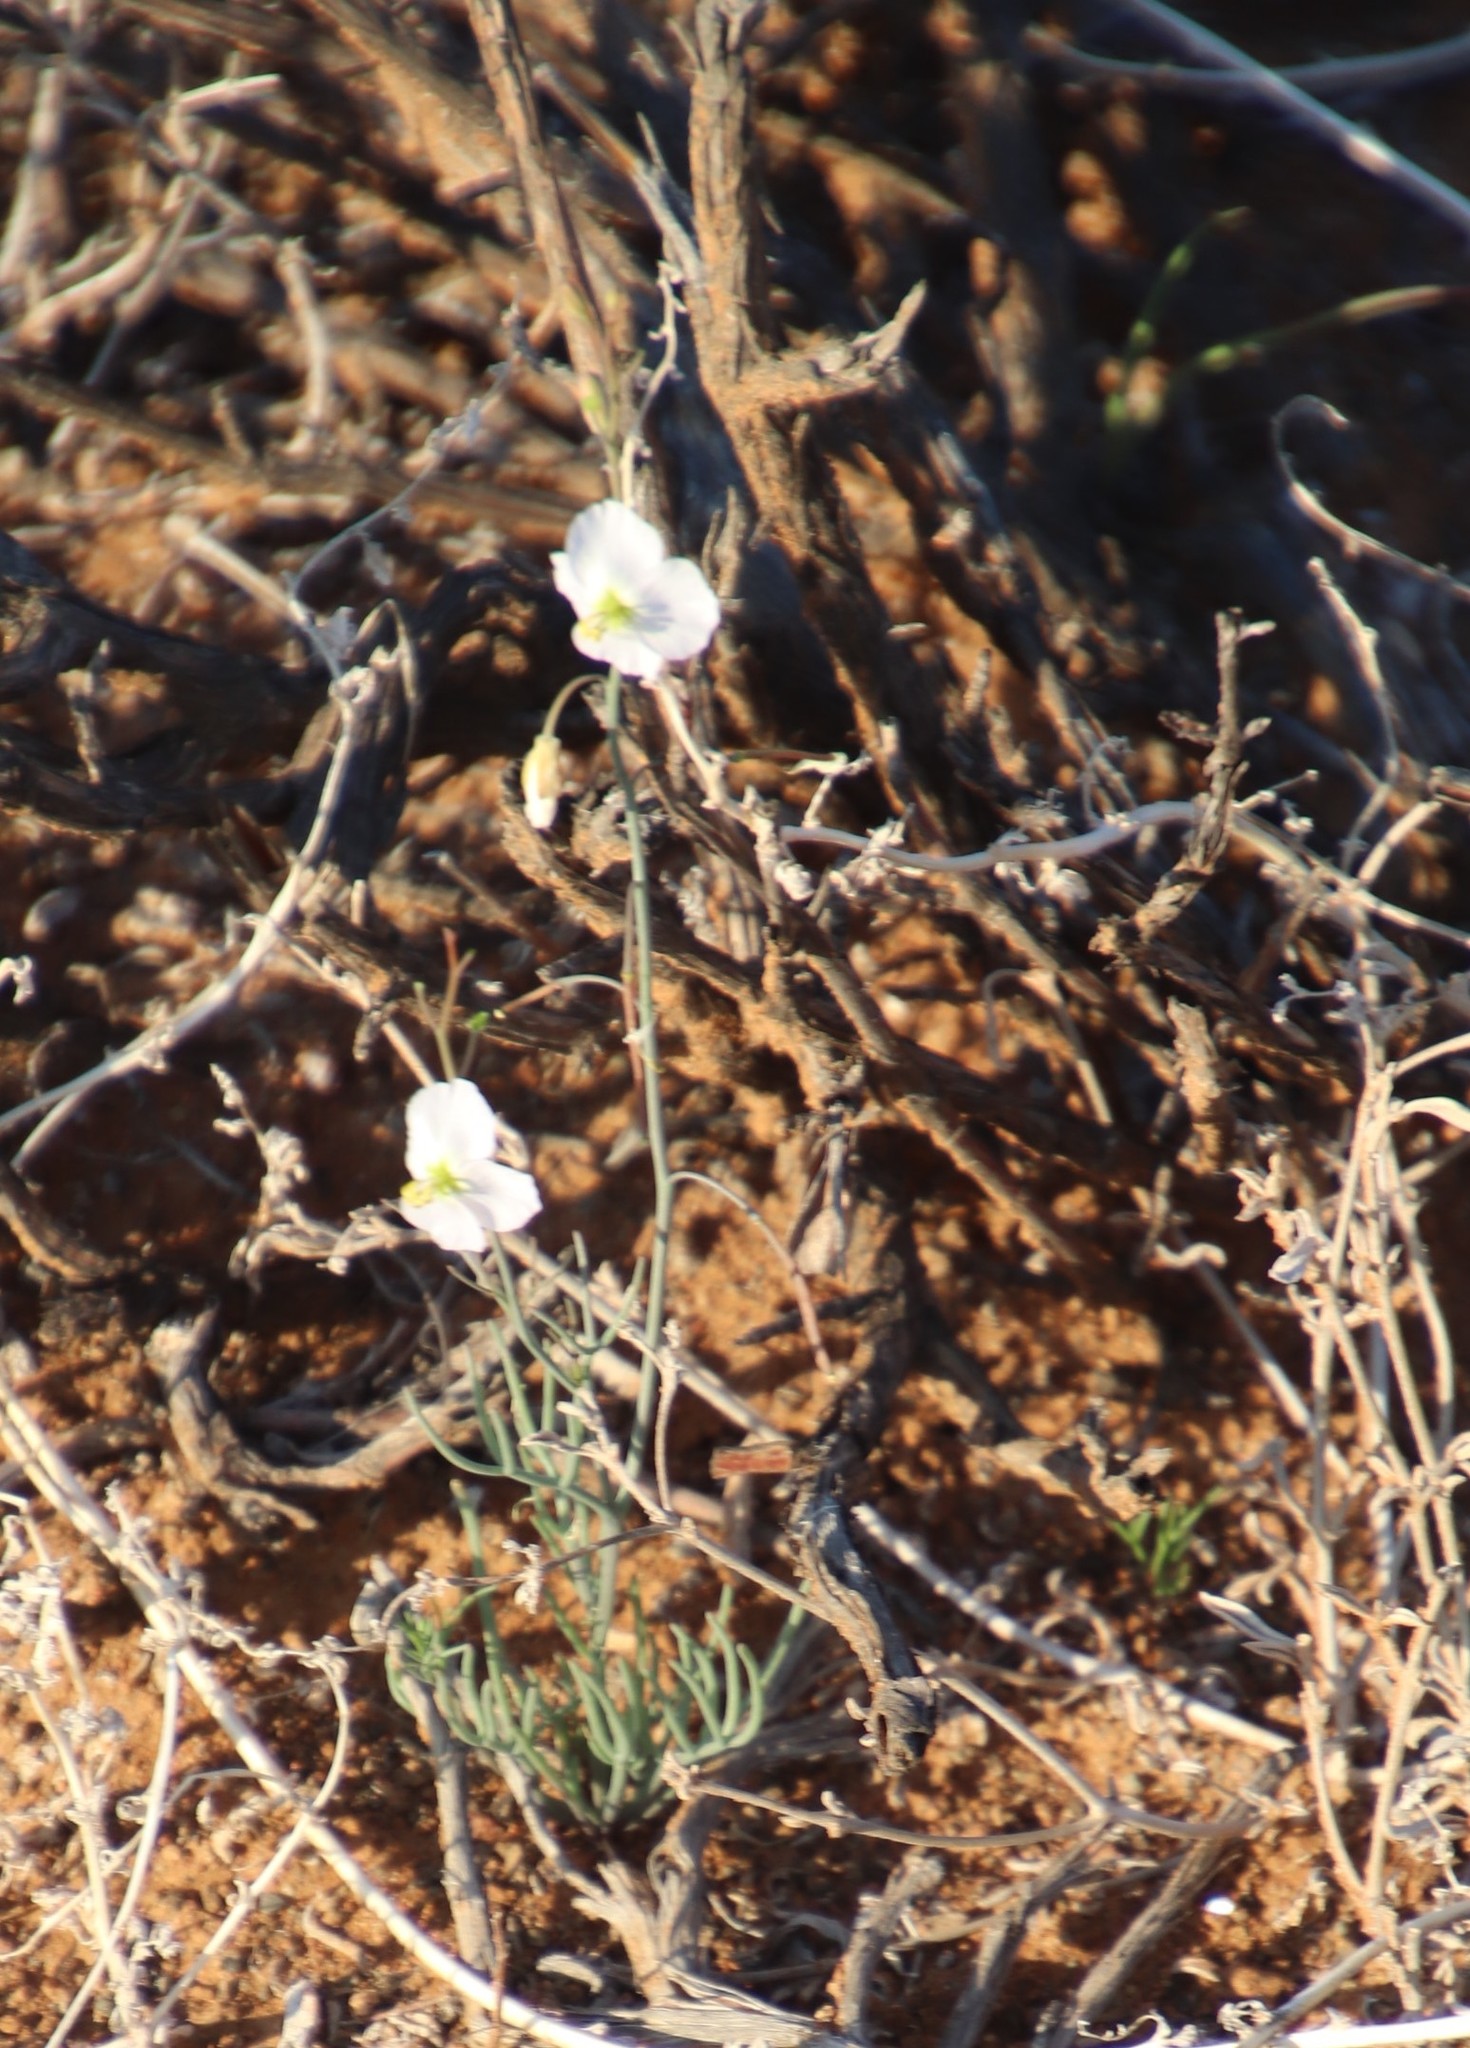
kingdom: Plantae
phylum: Tracheophyta
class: Magnoliopsida
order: Brassicales
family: Brassicaceae
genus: Heliophila
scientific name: Heliophila deserticola
